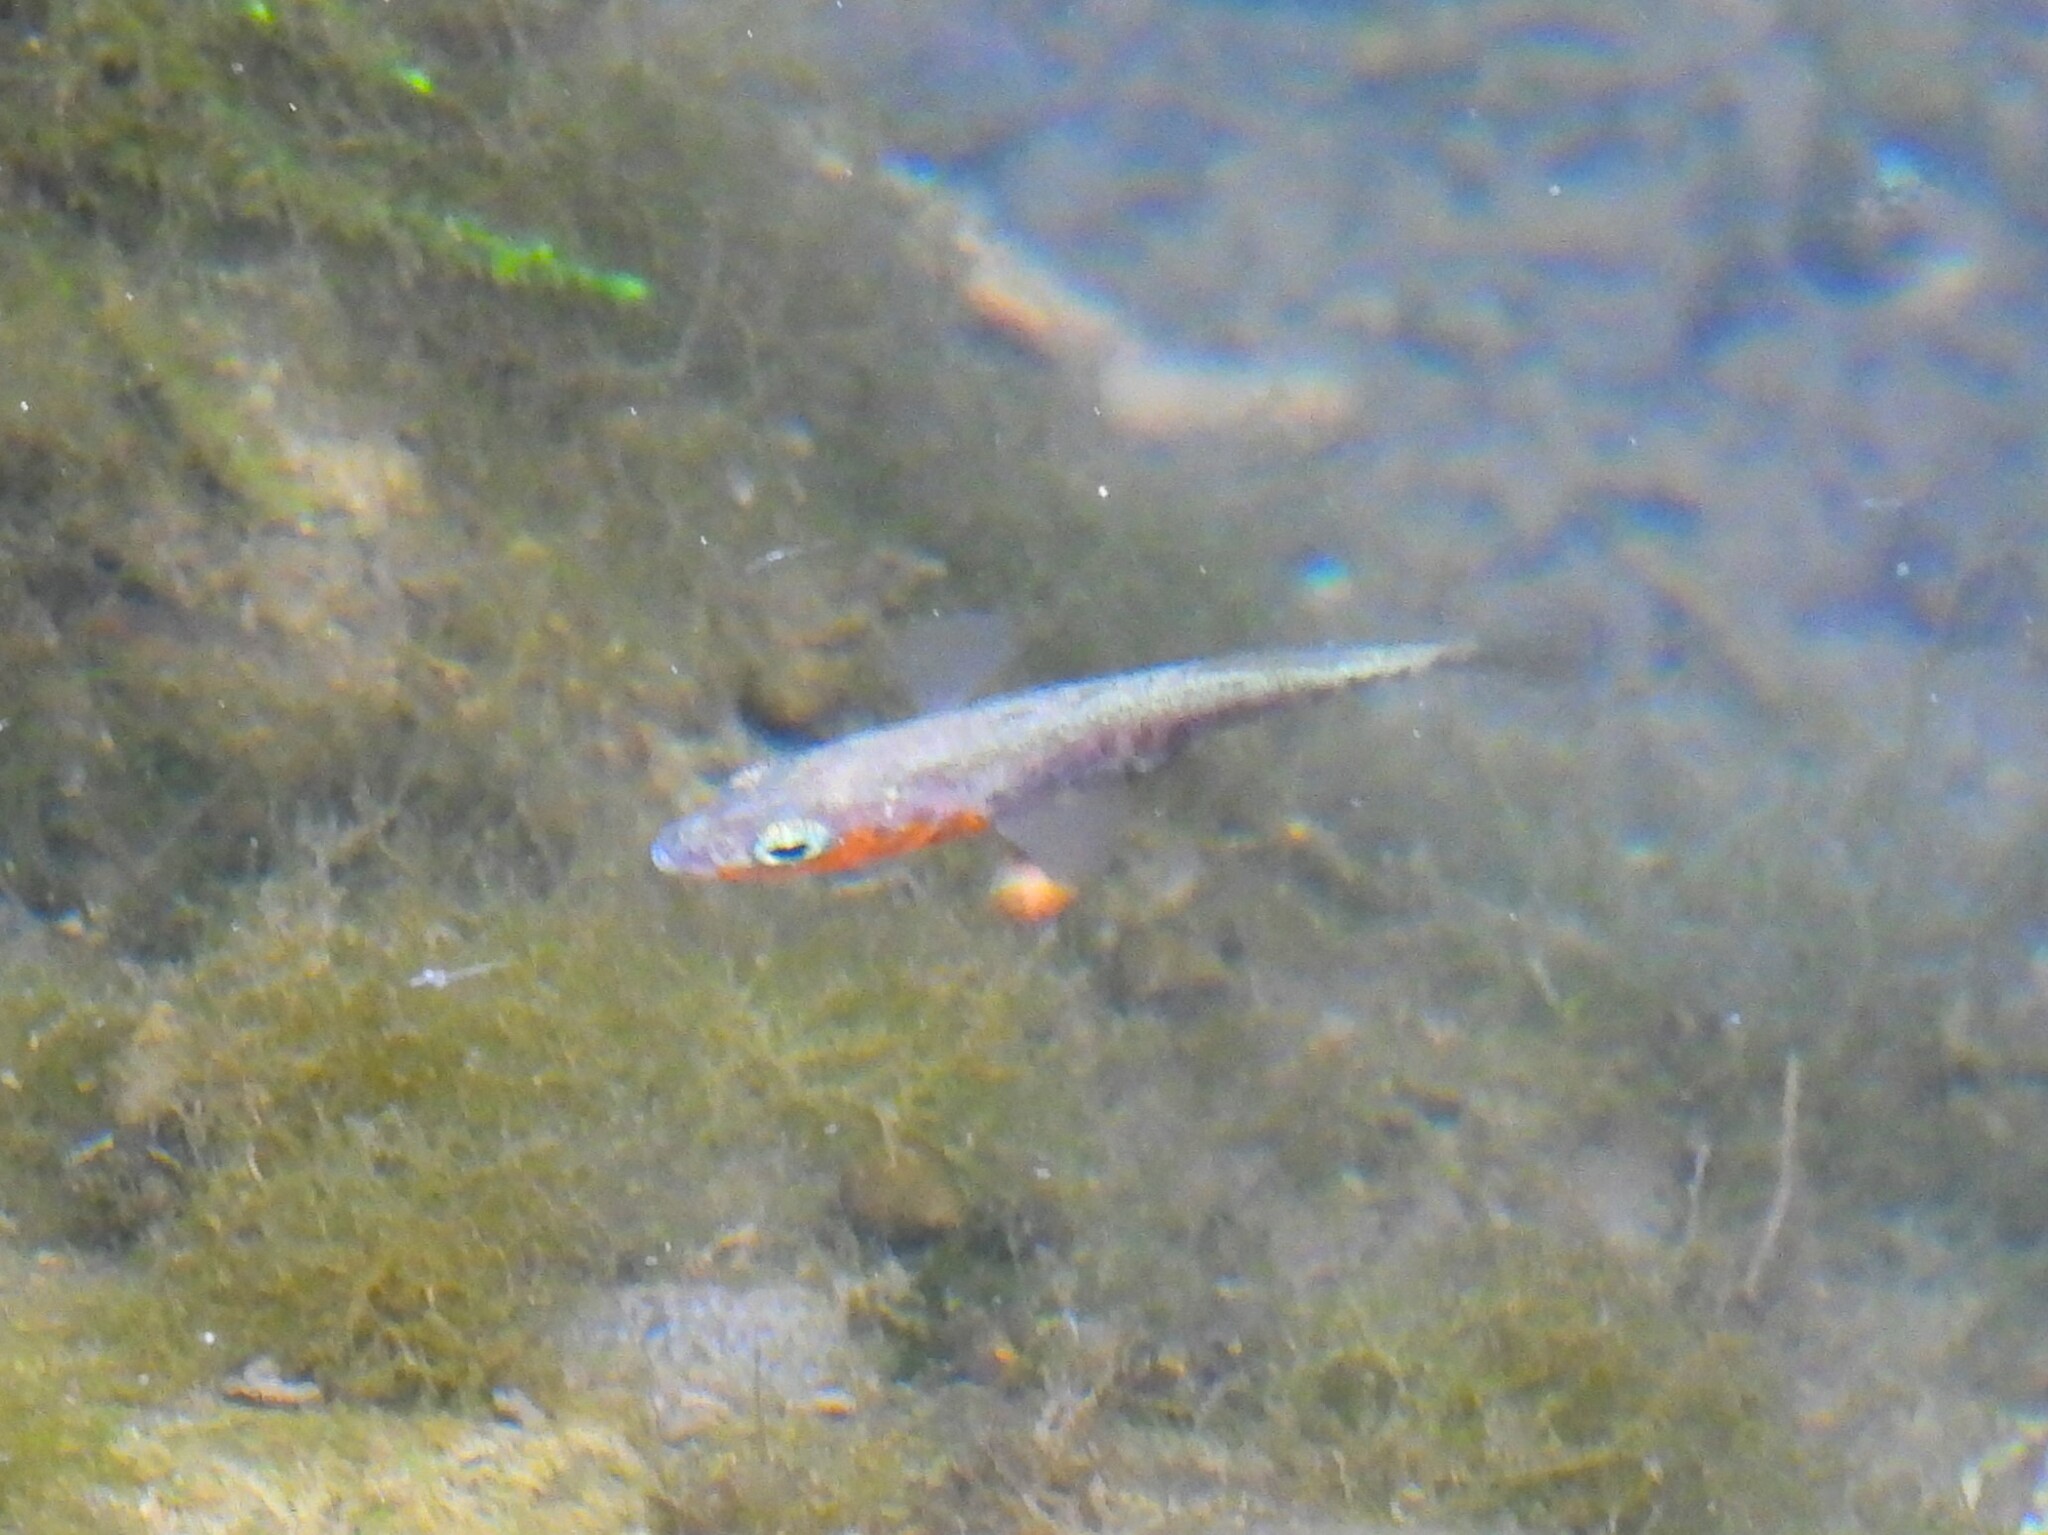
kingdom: Animalia
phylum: Chordata
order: Gasterosteiformes
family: Gasterosteidae
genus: Gasterosteus
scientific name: Gasterosteus aculeatus
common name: Three-spined stickleback
